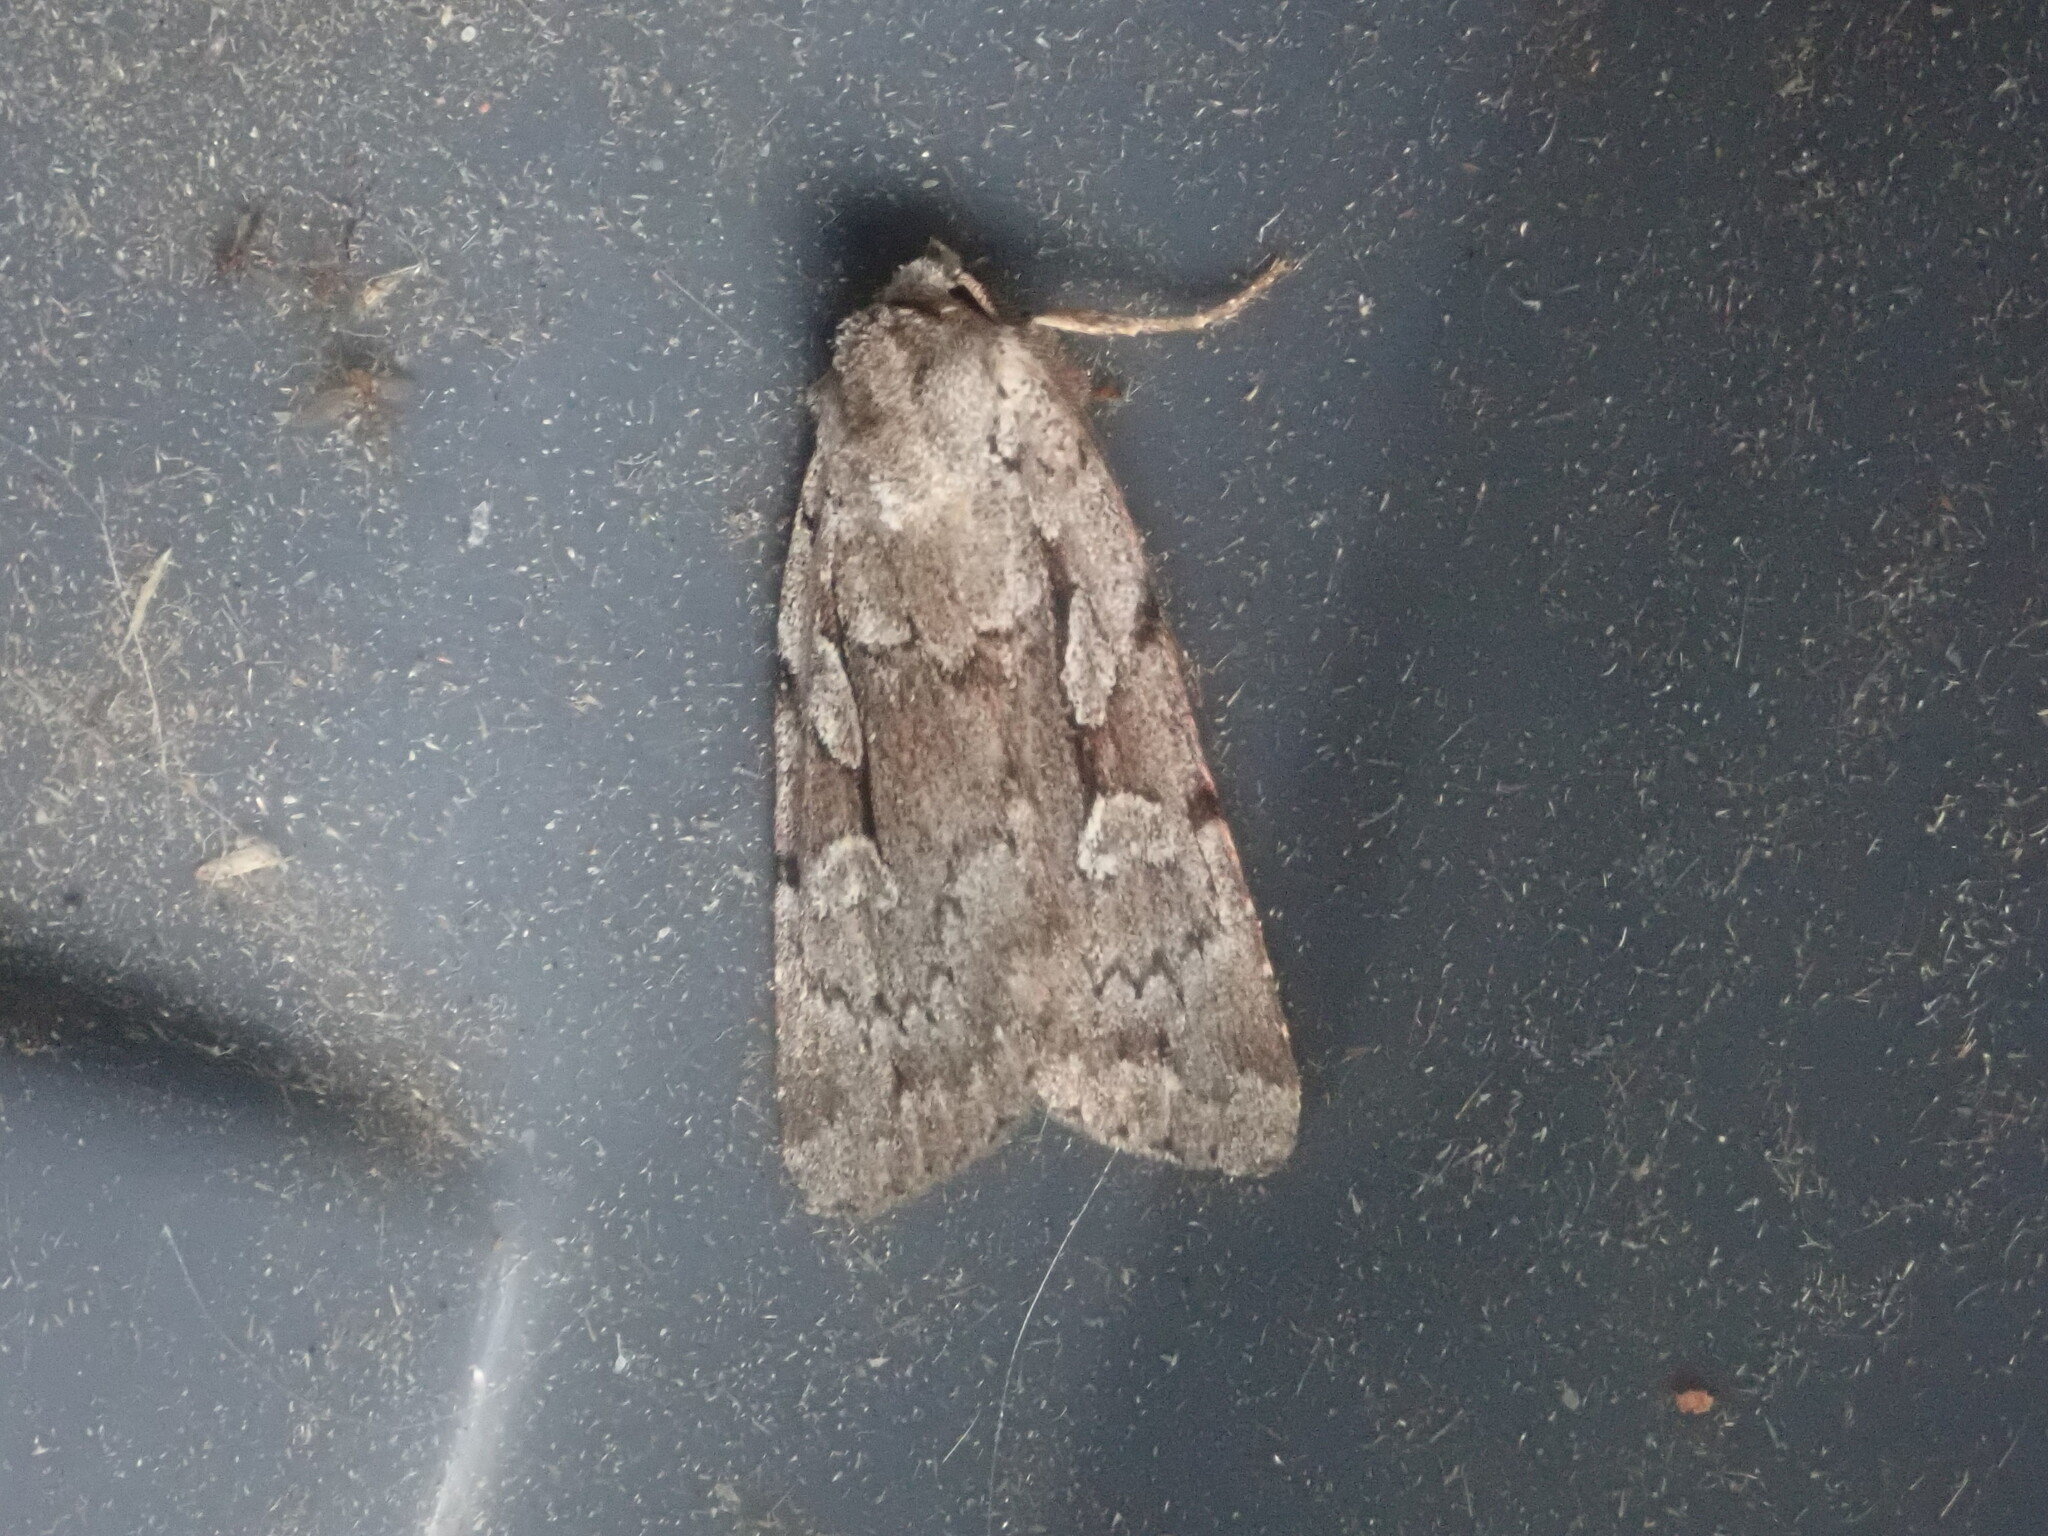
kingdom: Animalia
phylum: Arthropoda
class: Insecta
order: Lepidoptera
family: Noctuidae
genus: Xestia
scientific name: Xestia badicollis
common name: Northern variable dart
